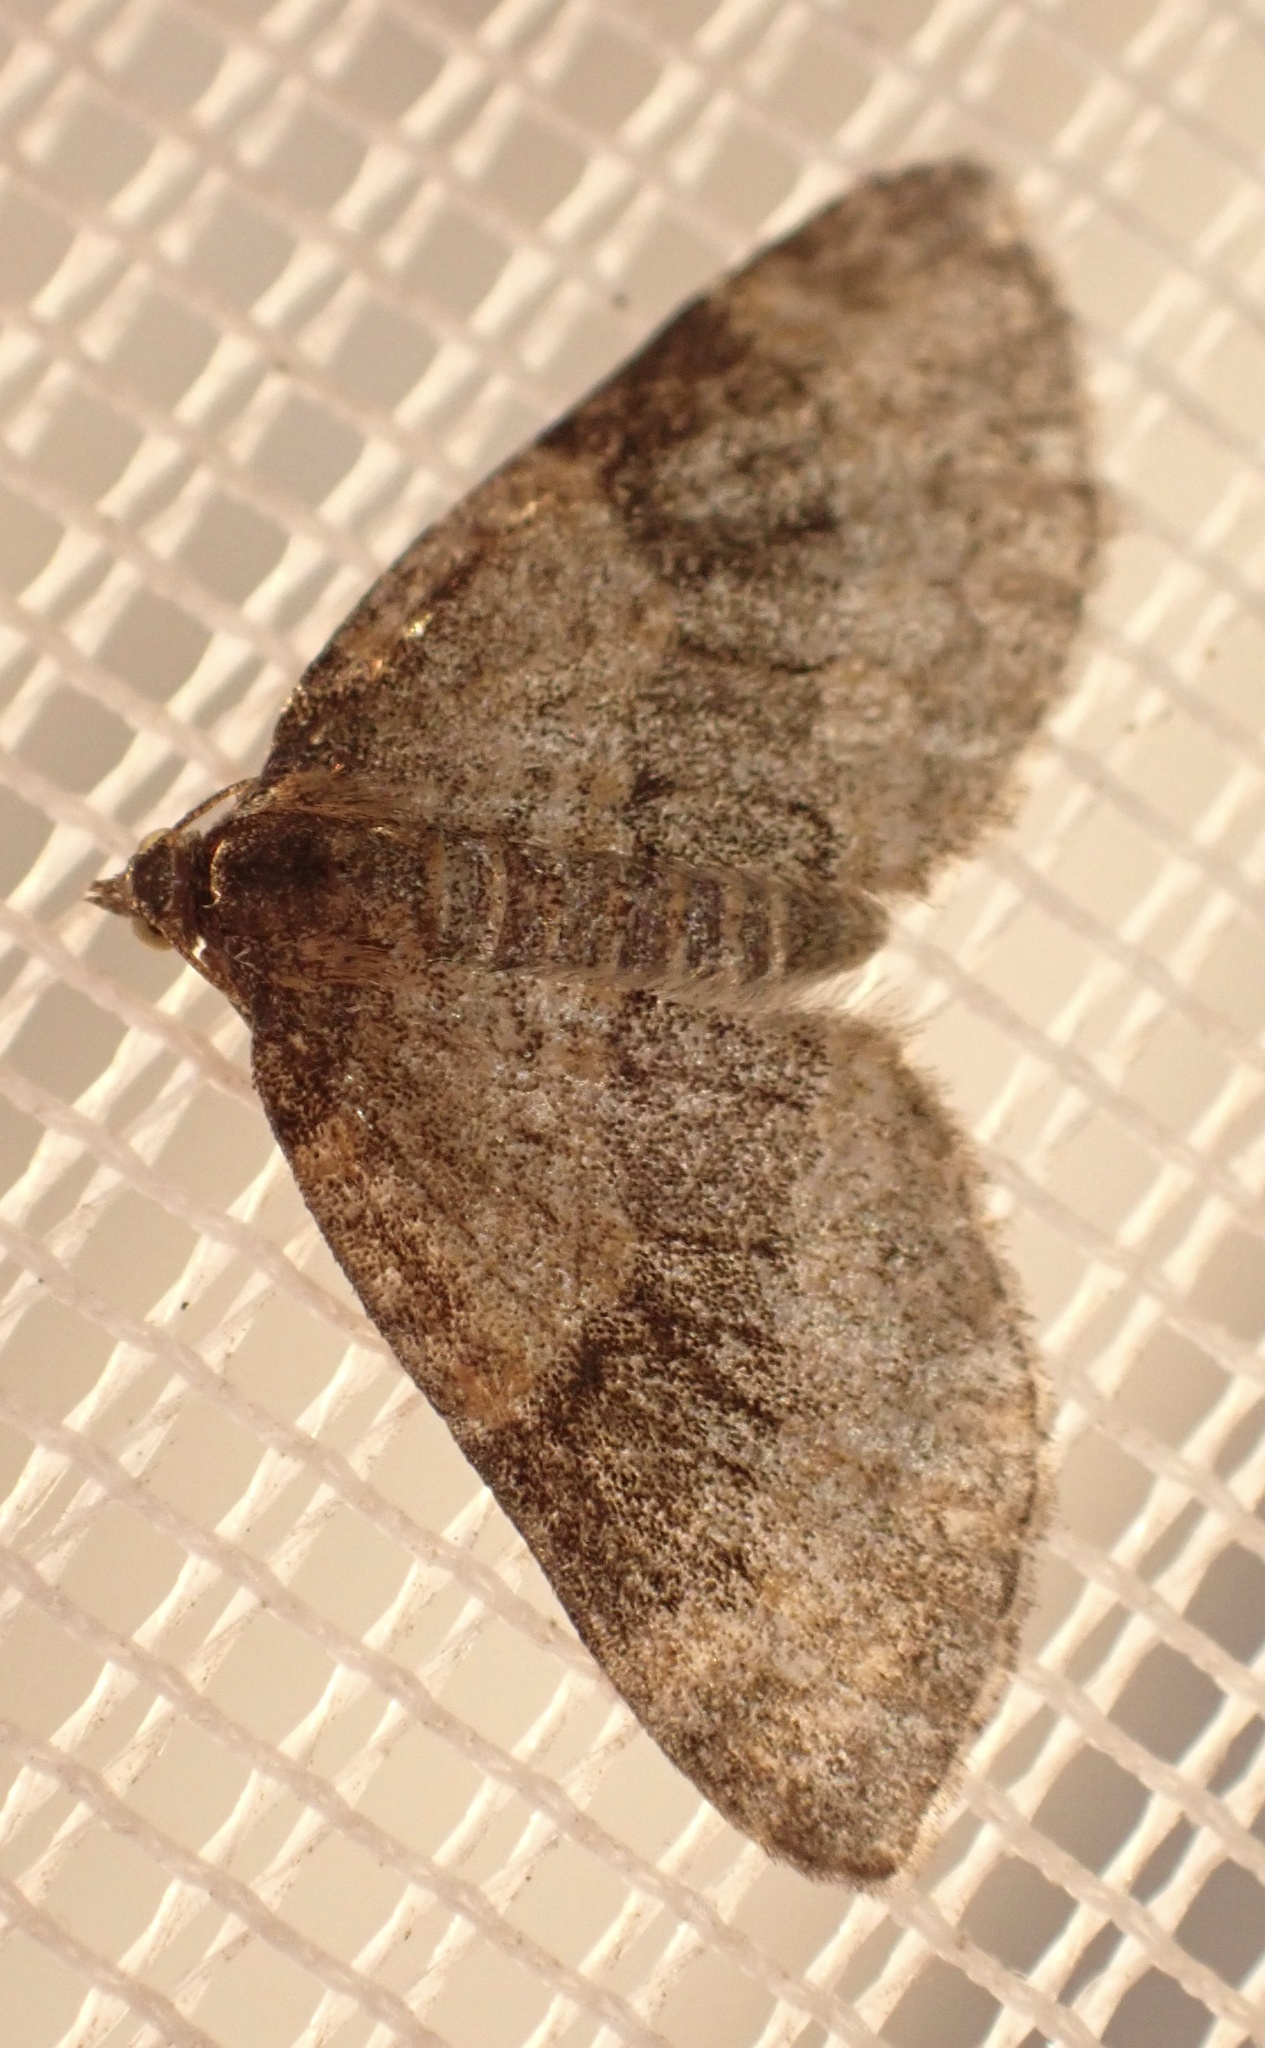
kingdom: Animalia
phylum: Arthropoda
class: Insecta
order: Lepidoptera
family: Geometridae
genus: Pterapherapteryx
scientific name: Pterapherapteryx sexalata
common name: Small seraphim
